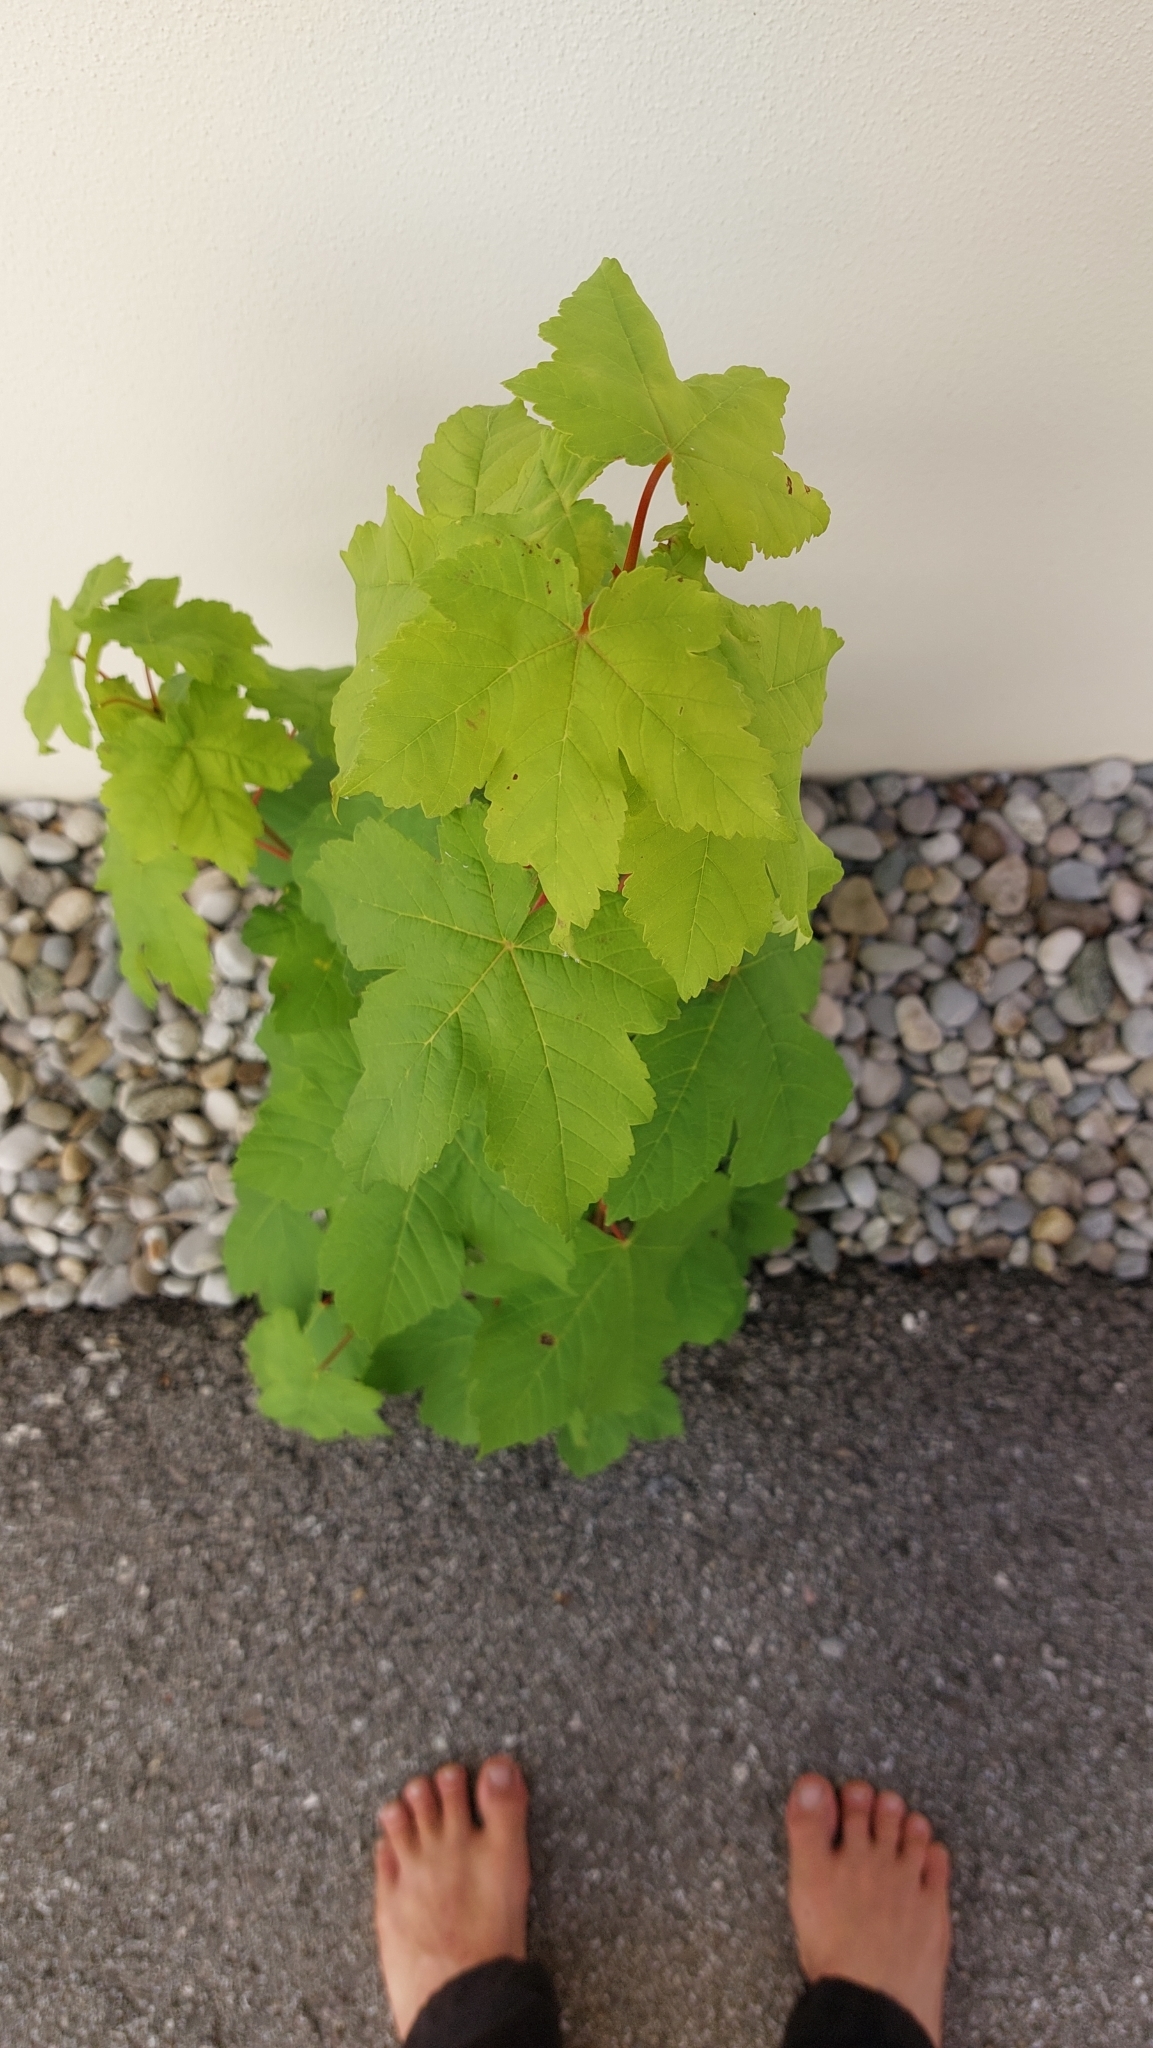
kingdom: Plantae
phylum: Tracheophyta
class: Magnoliopsida
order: Sapindales
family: Sapindaceae
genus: Acer
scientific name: Acer pseudoplatanus
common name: Sycamore
